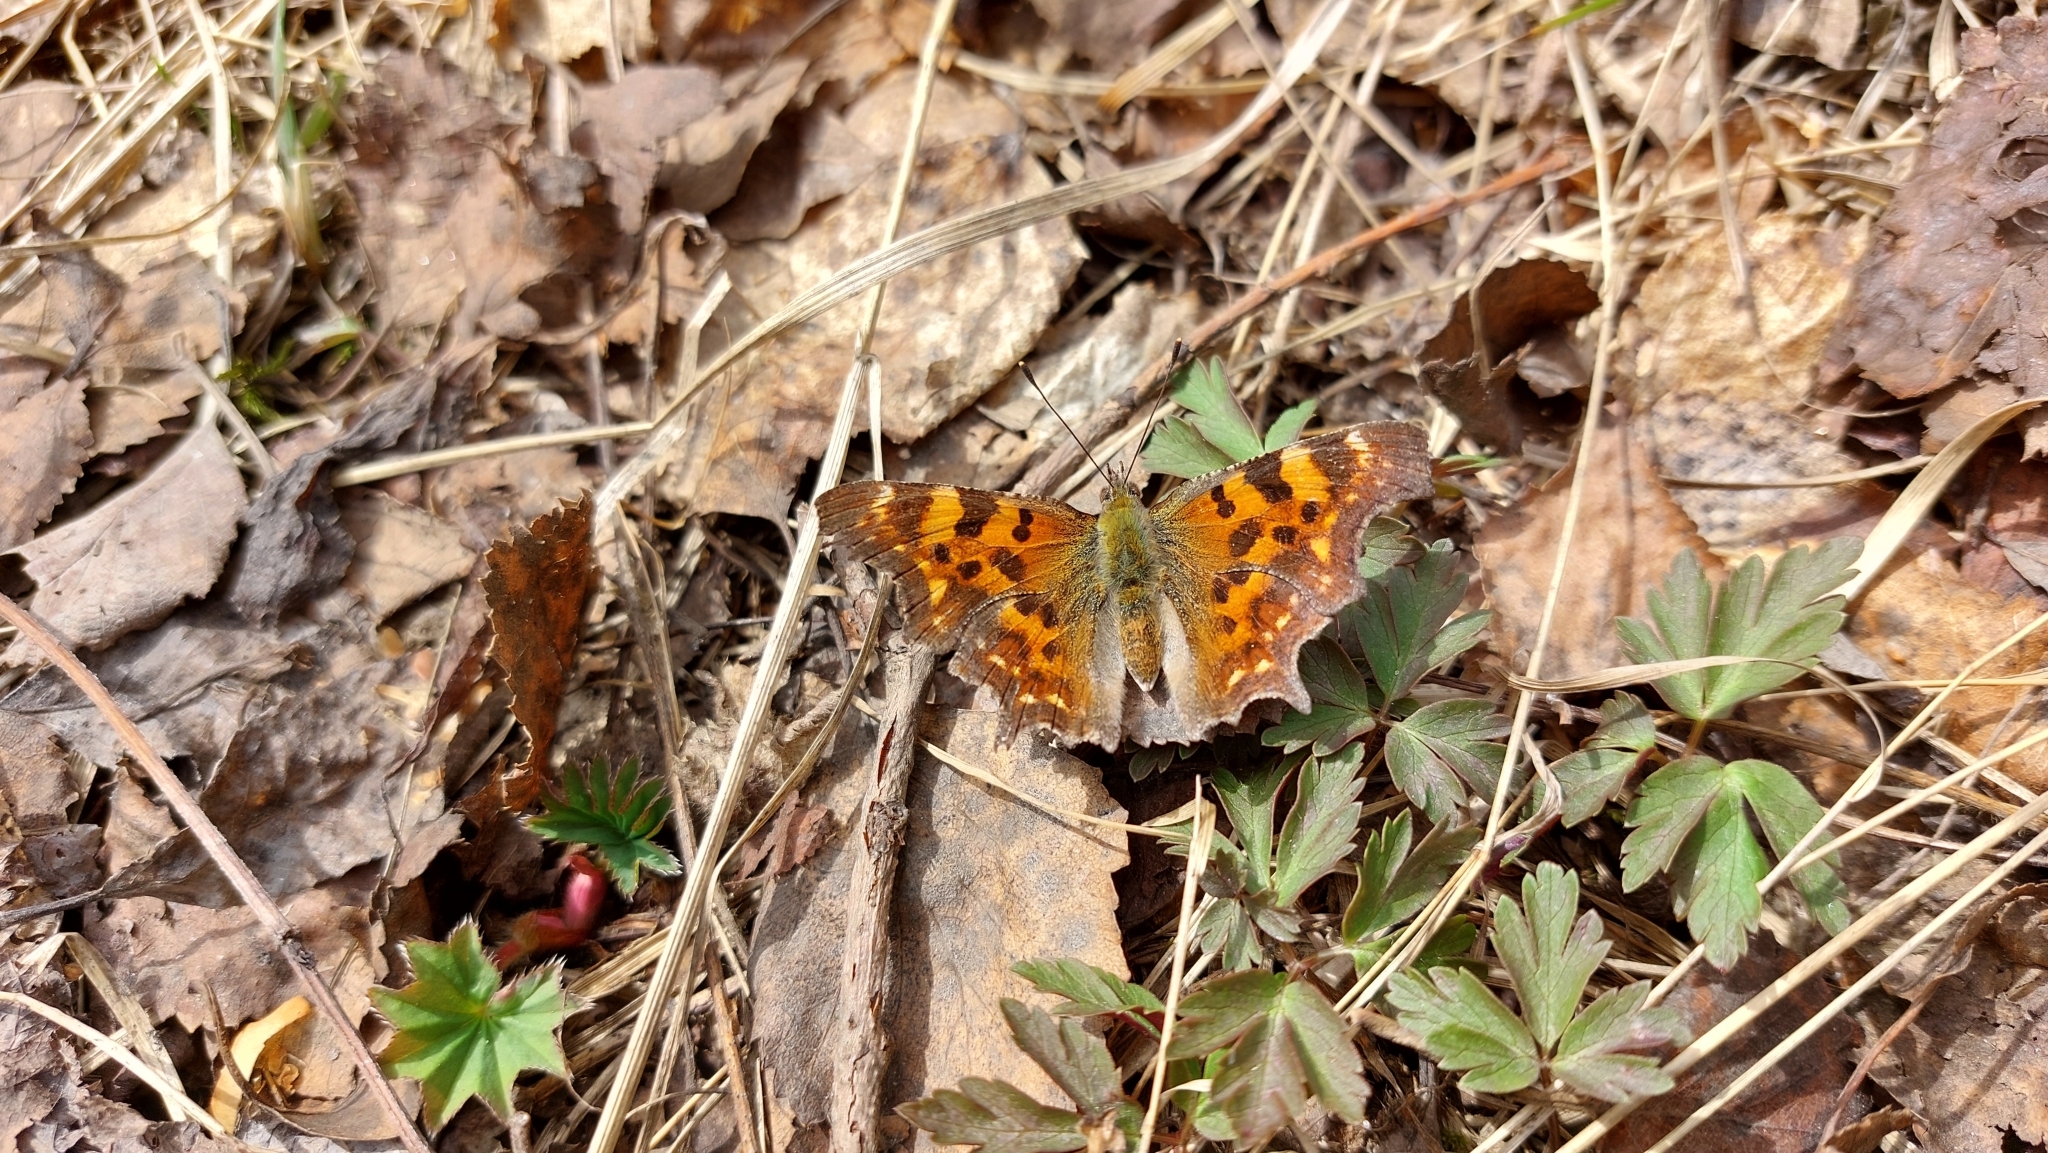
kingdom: Animalia
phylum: Arthropoda
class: Insecta
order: Lepidoptera
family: Nymphalidae
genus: Polygonia
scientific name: Polygonia c-album
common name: Comma
